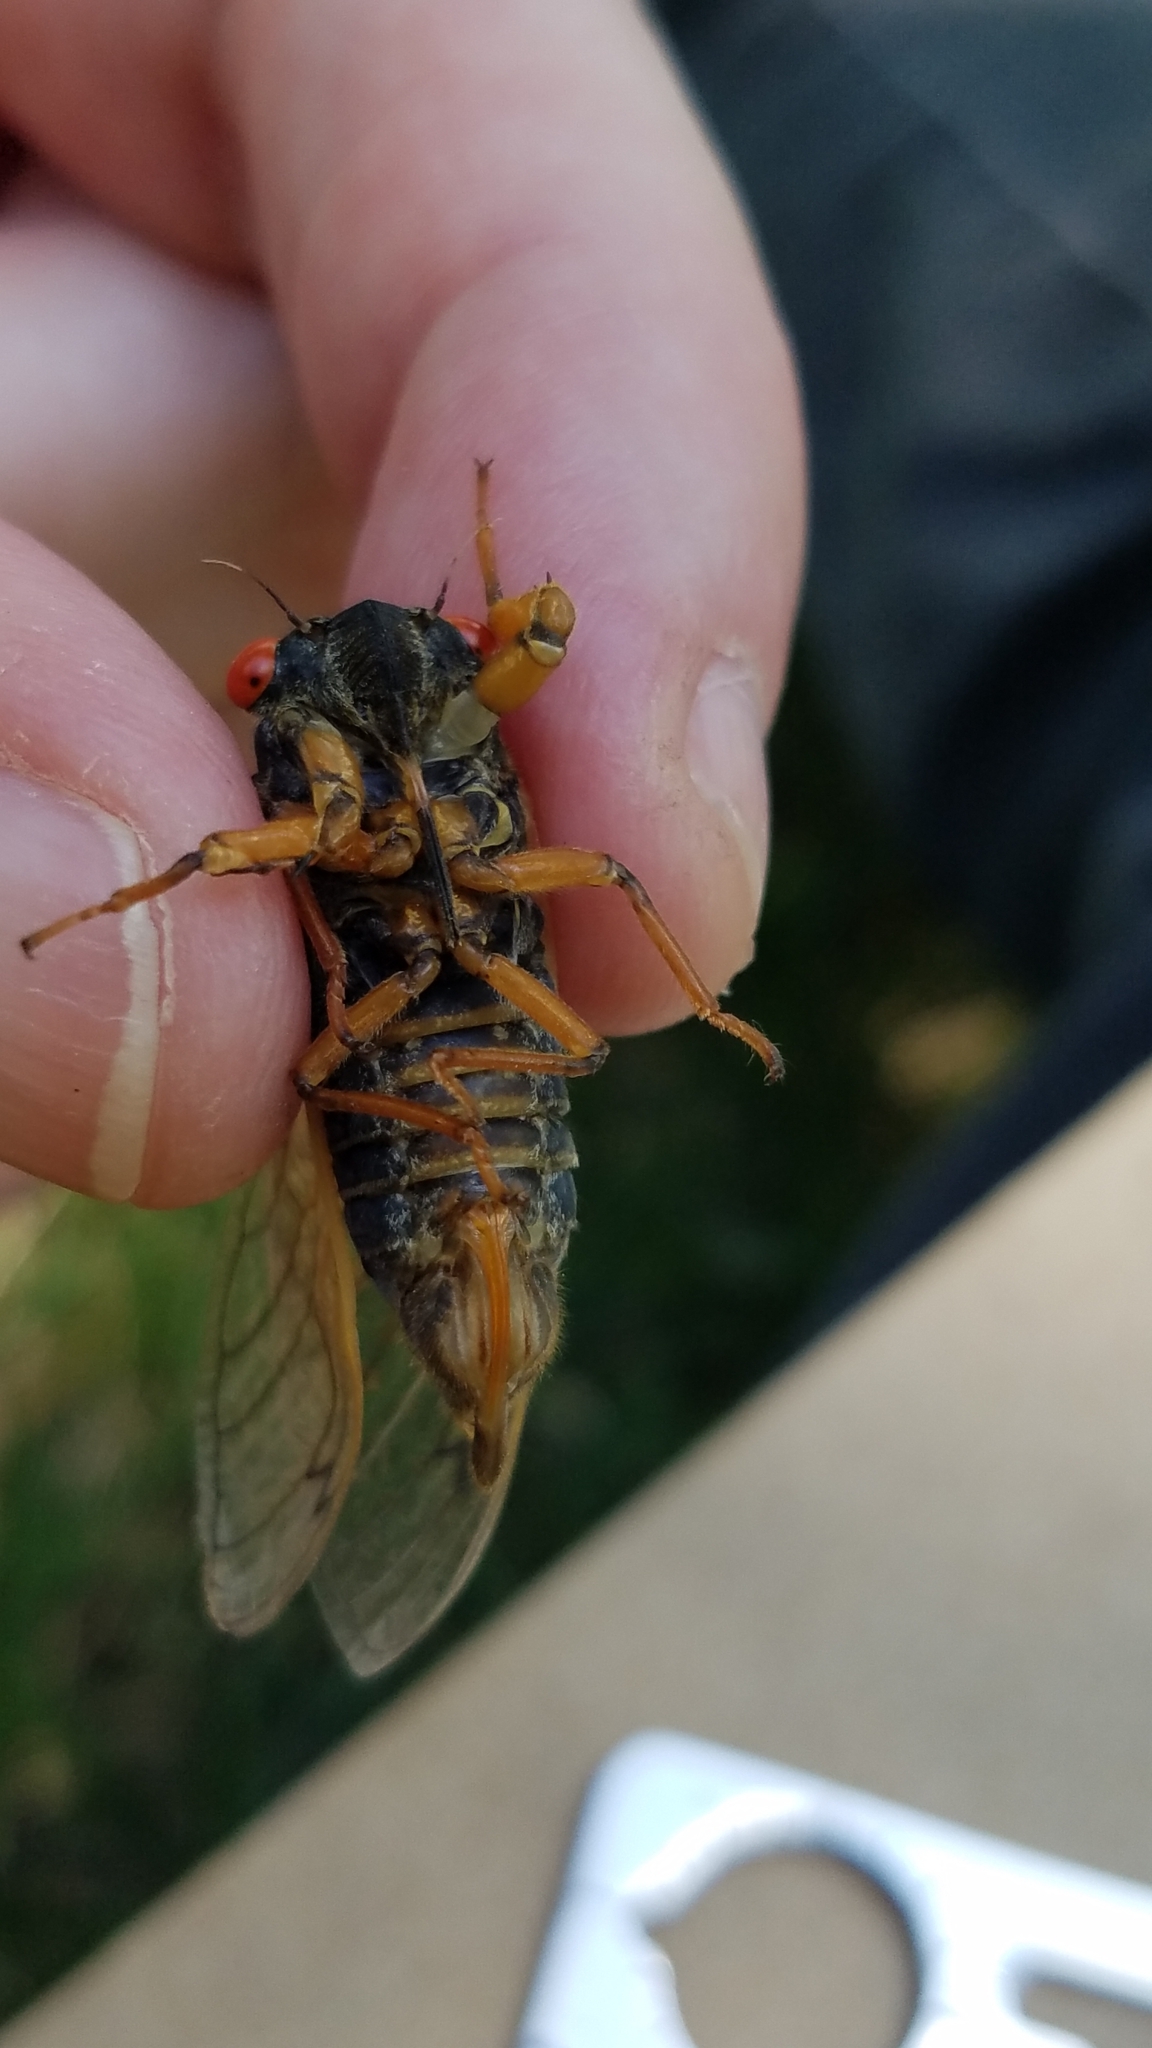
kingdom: Animalia
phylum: Arthropoda
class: Insecta
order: Hemiptera
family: Cicadidae
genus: Magicicada
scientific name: Magicicada septendecula
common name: Decula periodical cicada
